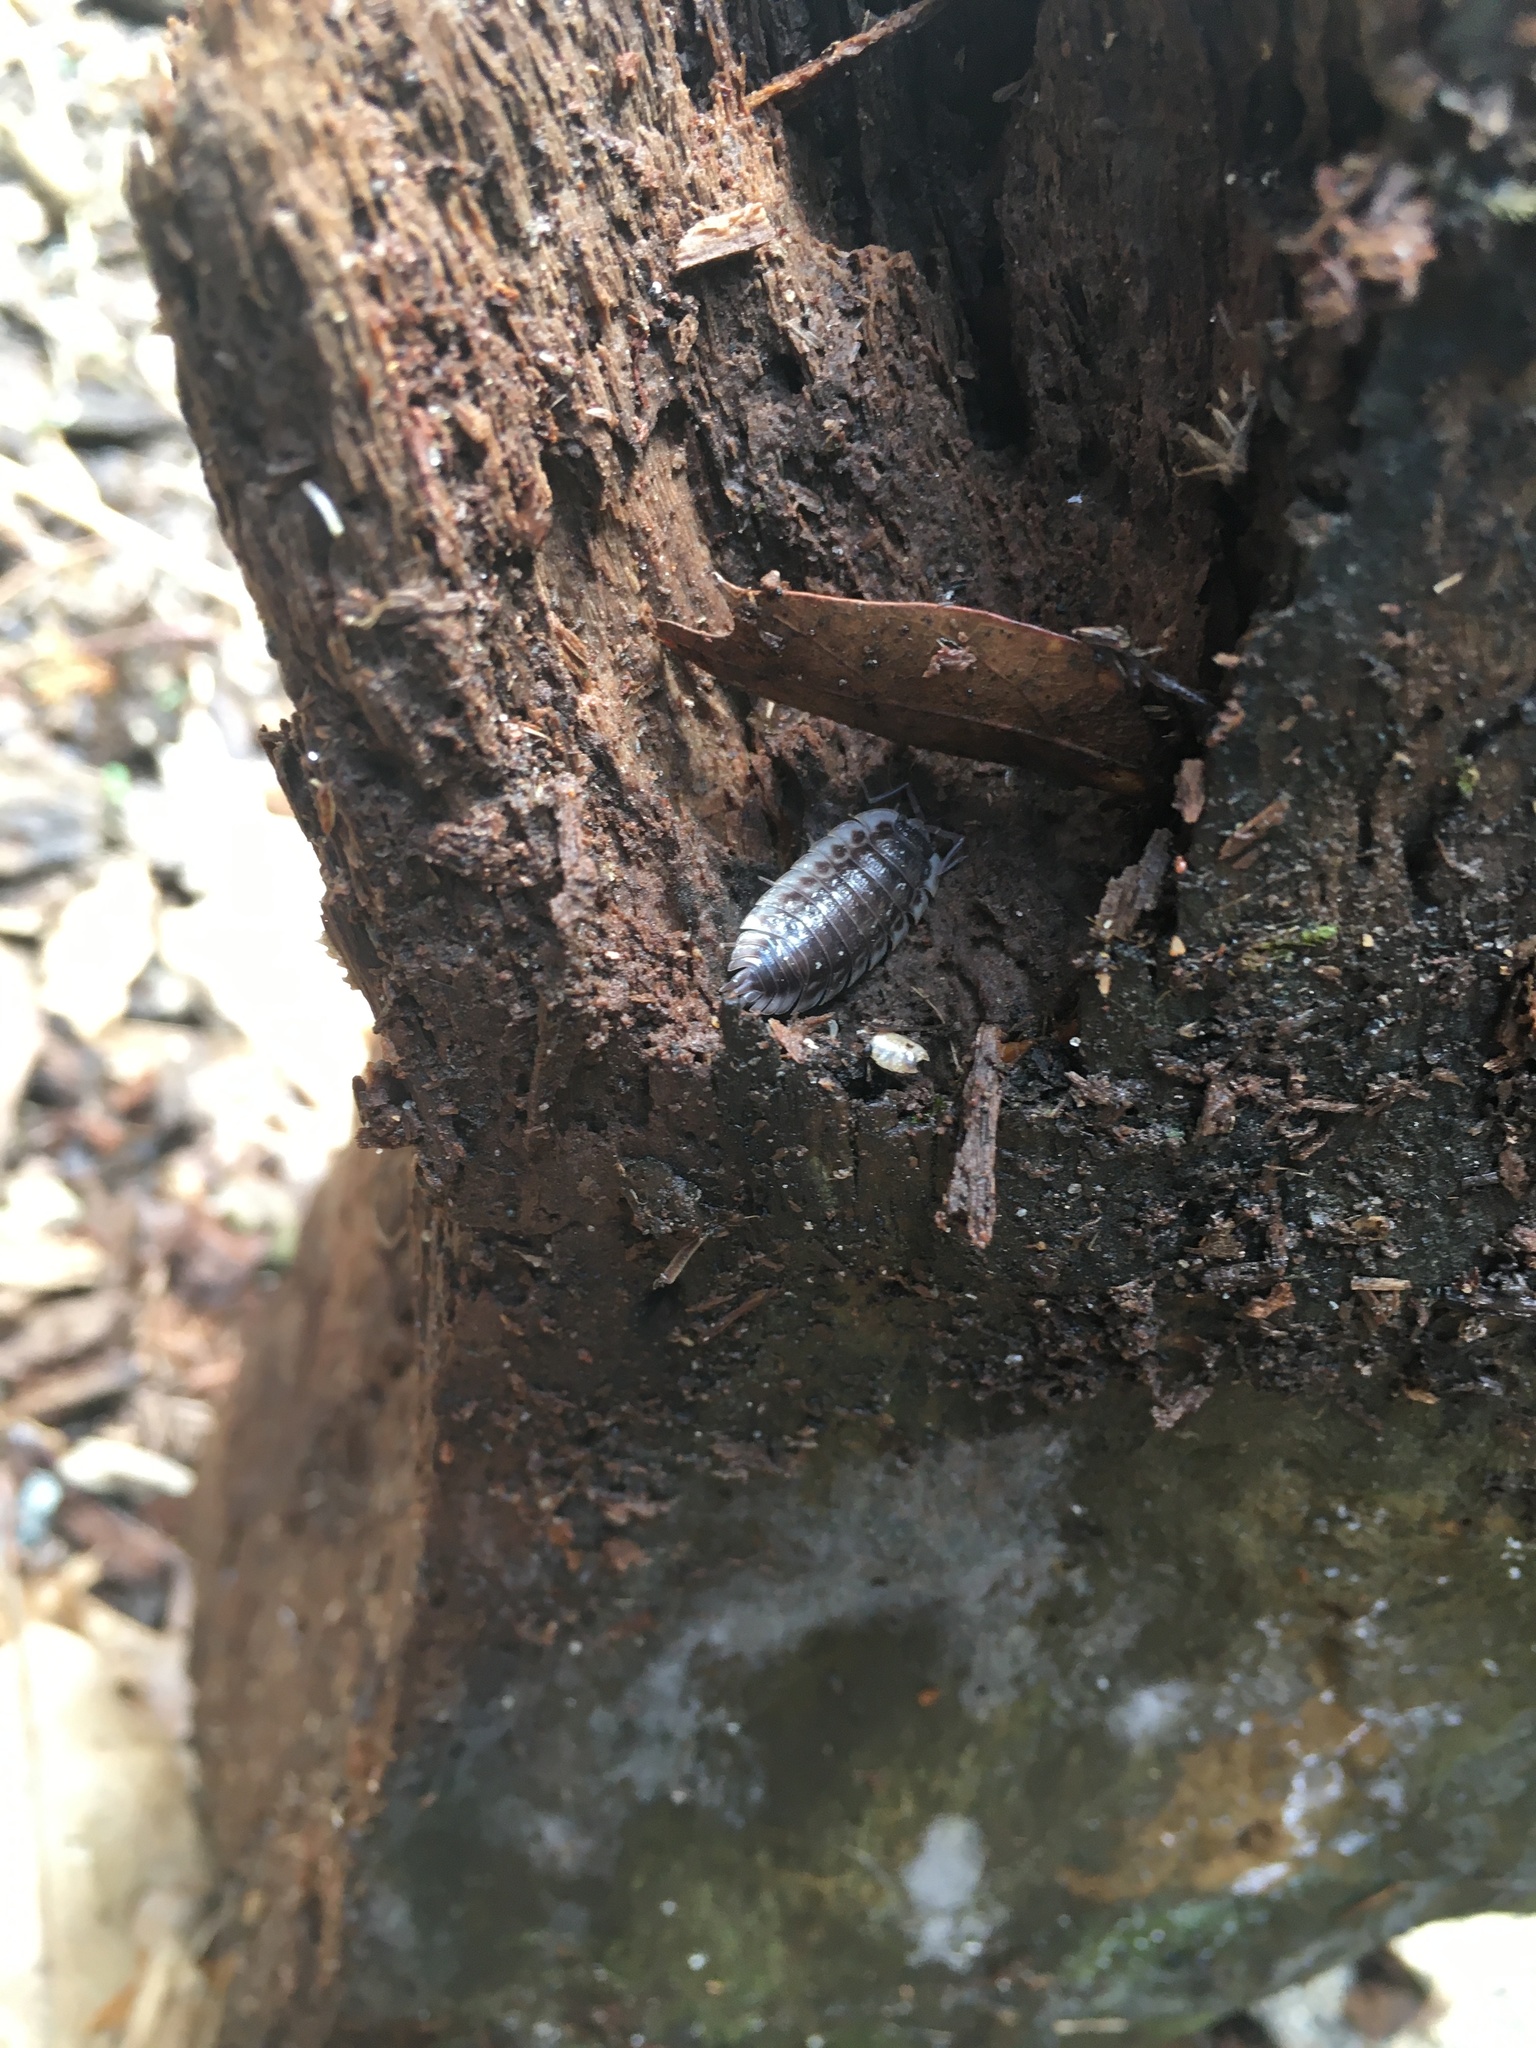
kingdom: Animalia
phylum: Arthropoda
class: Malacostraca
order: Isopoda
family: Oniscidae
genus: Oniscus
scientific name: Oniscus asellus
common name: Common shiny woodlouse
